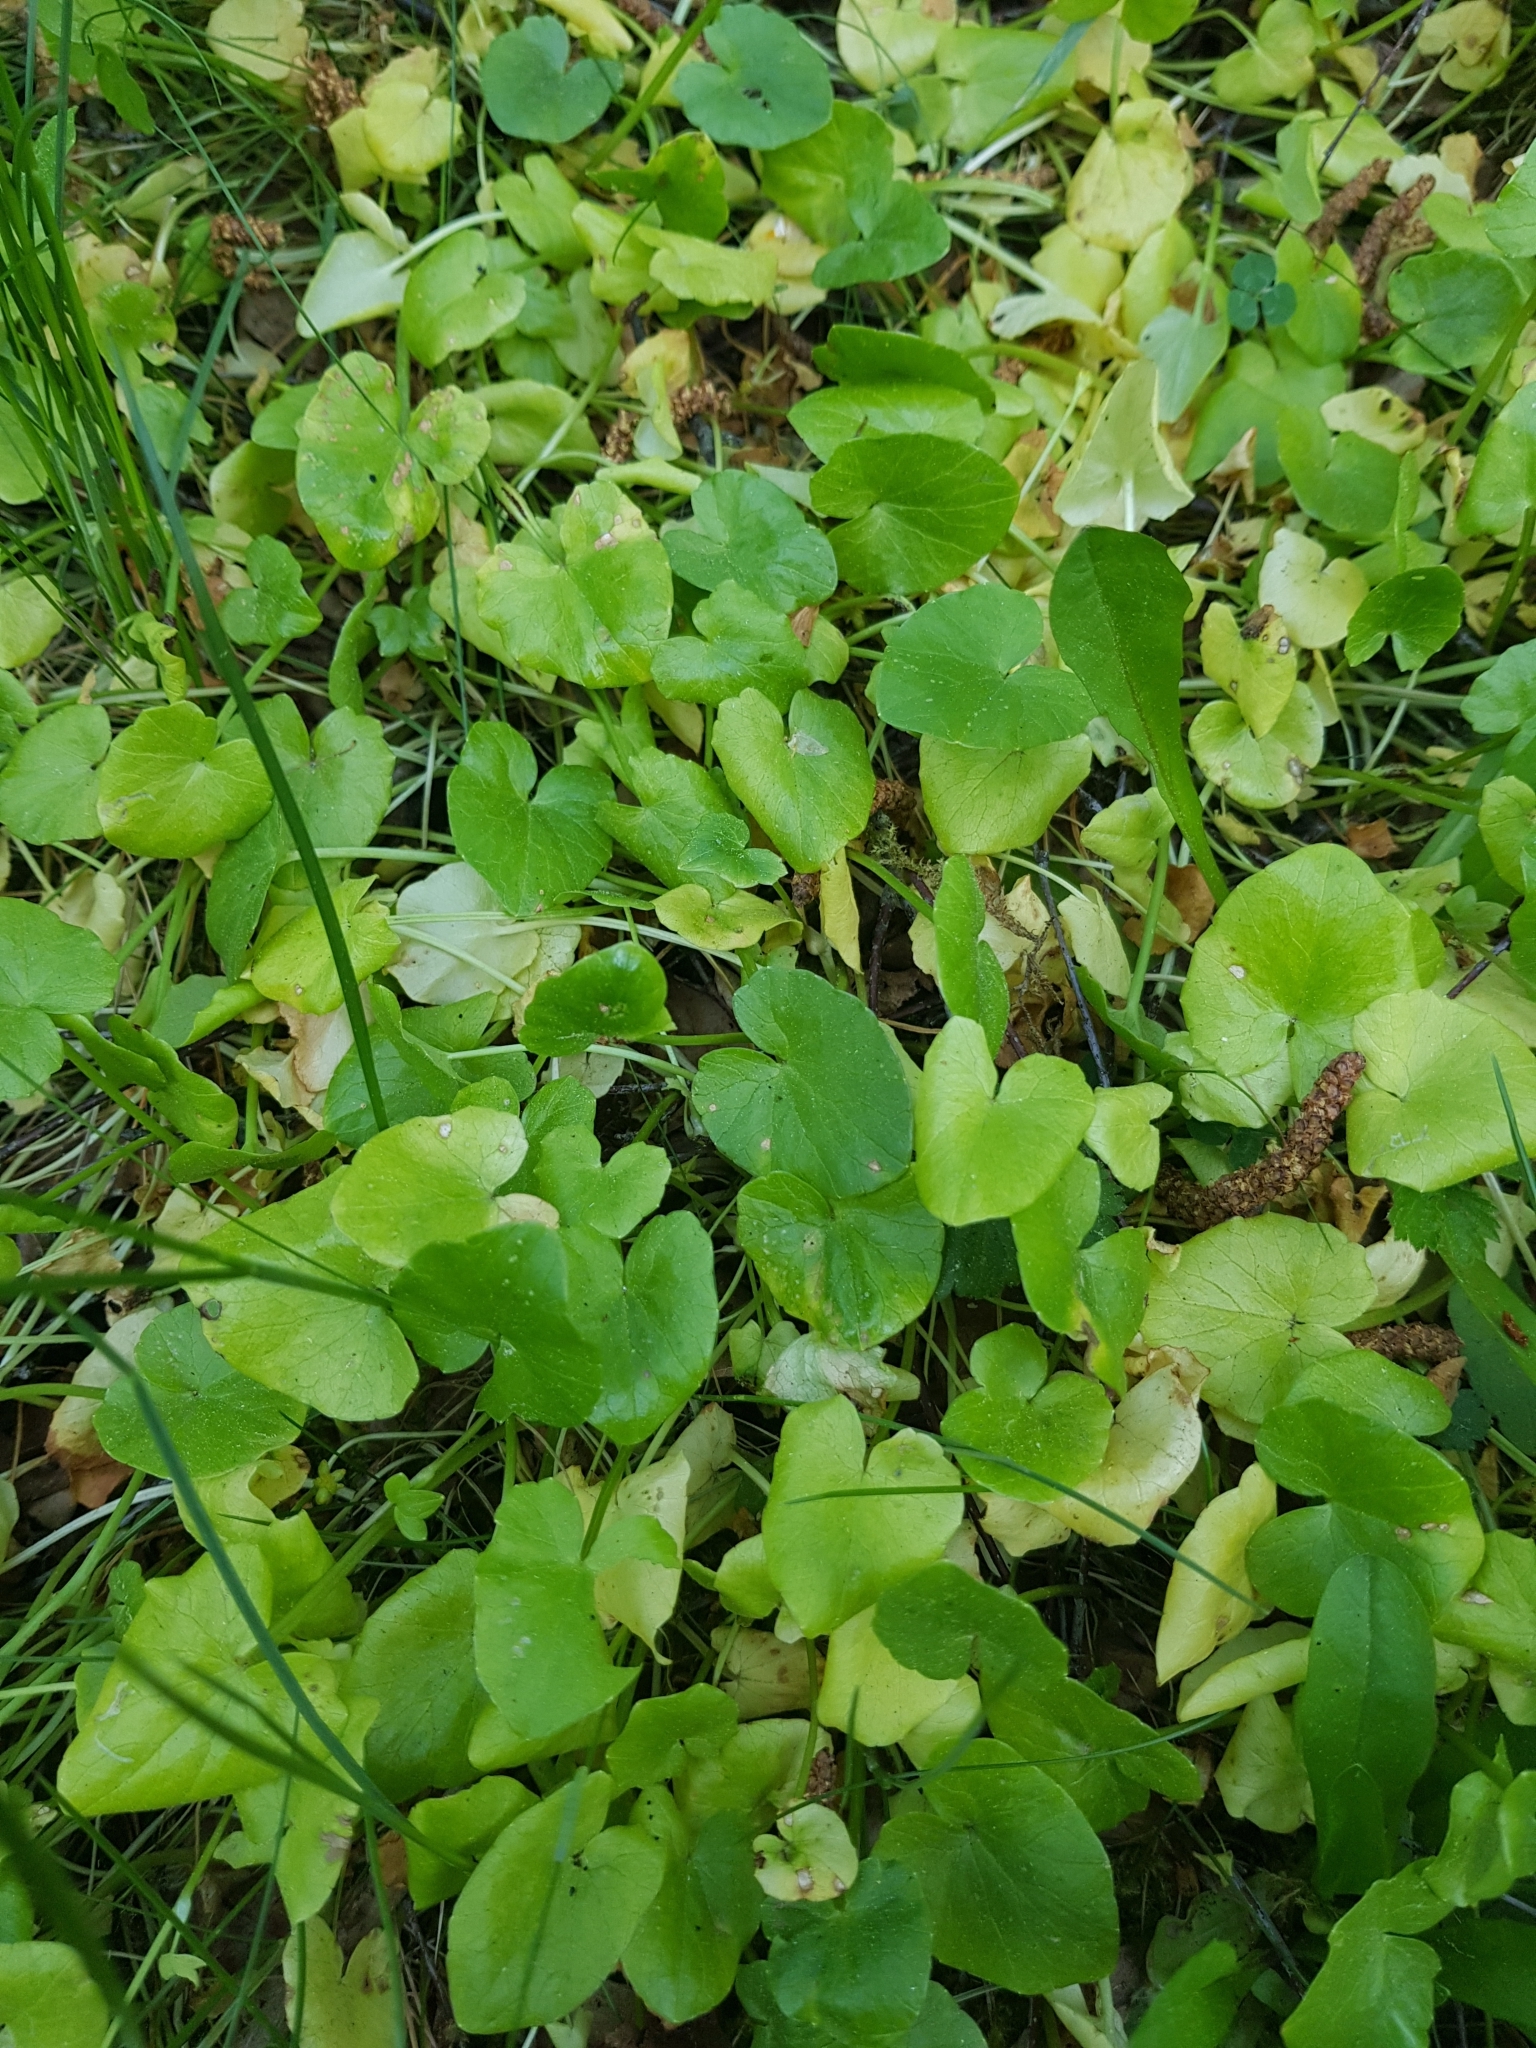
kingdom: Plantae
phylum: Tracheophyta
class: Magnoliopsida
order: Ranunculales
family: Ranunculaceae
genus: Ficaria
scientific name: Ficaria verna
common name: Lesser celandine
